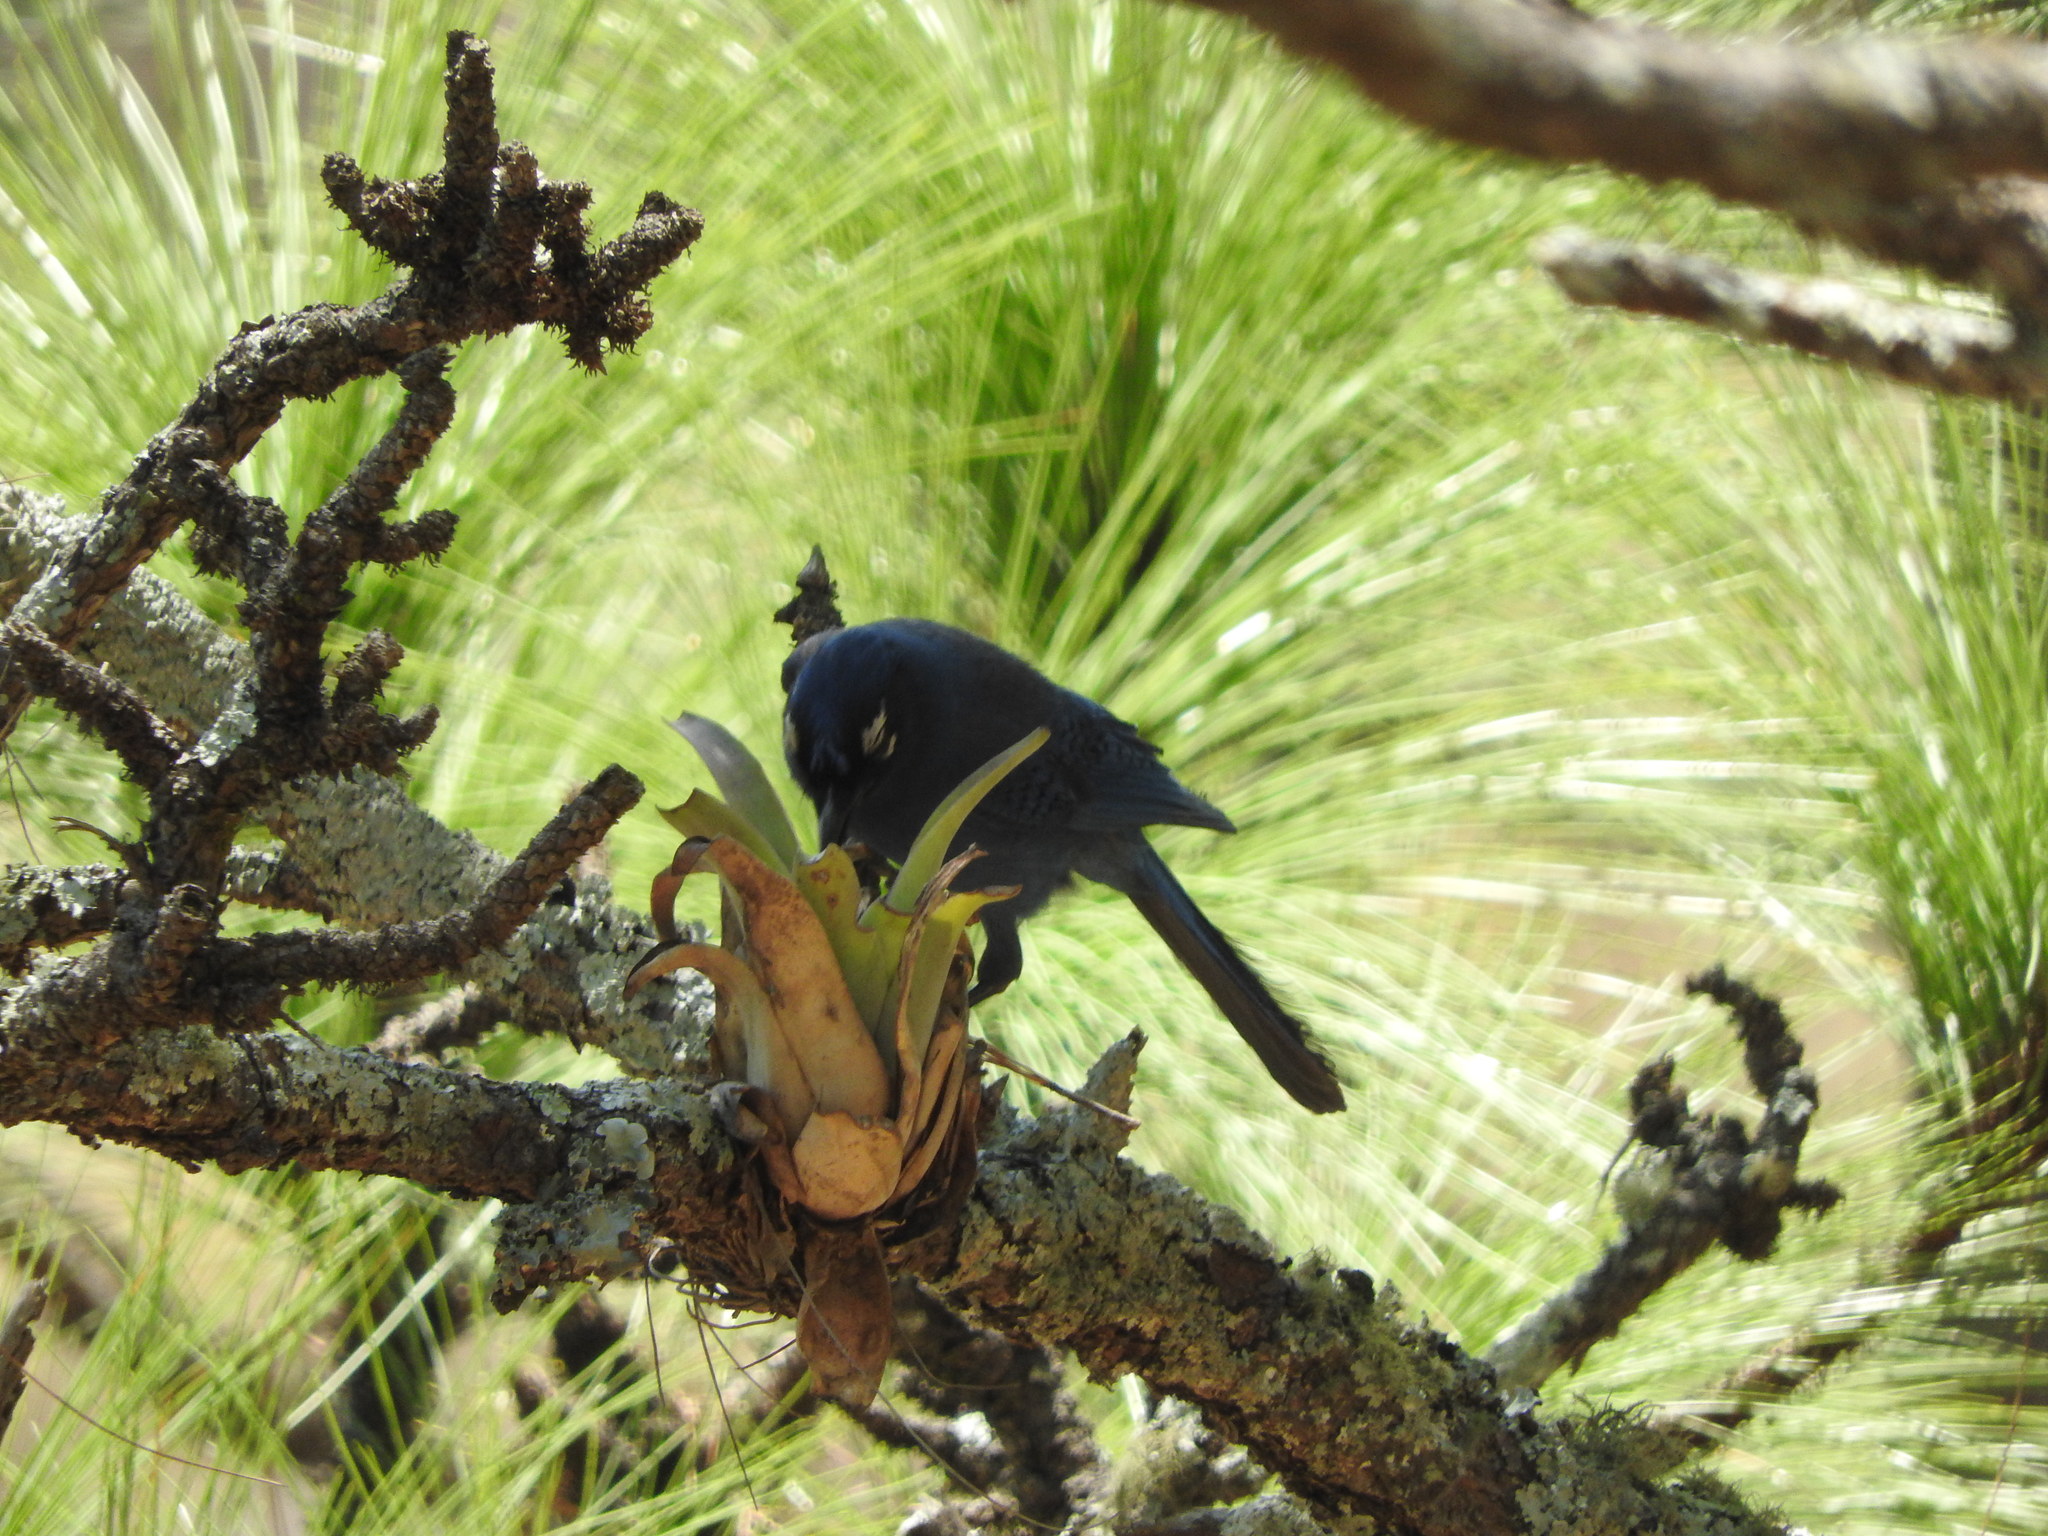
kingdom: Animalia
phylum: Chordata
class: Aves
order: Passeriformes
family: Corvidae
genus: Cyanocitta
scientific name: Cyanocitta stelleri
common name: Steller's jay
